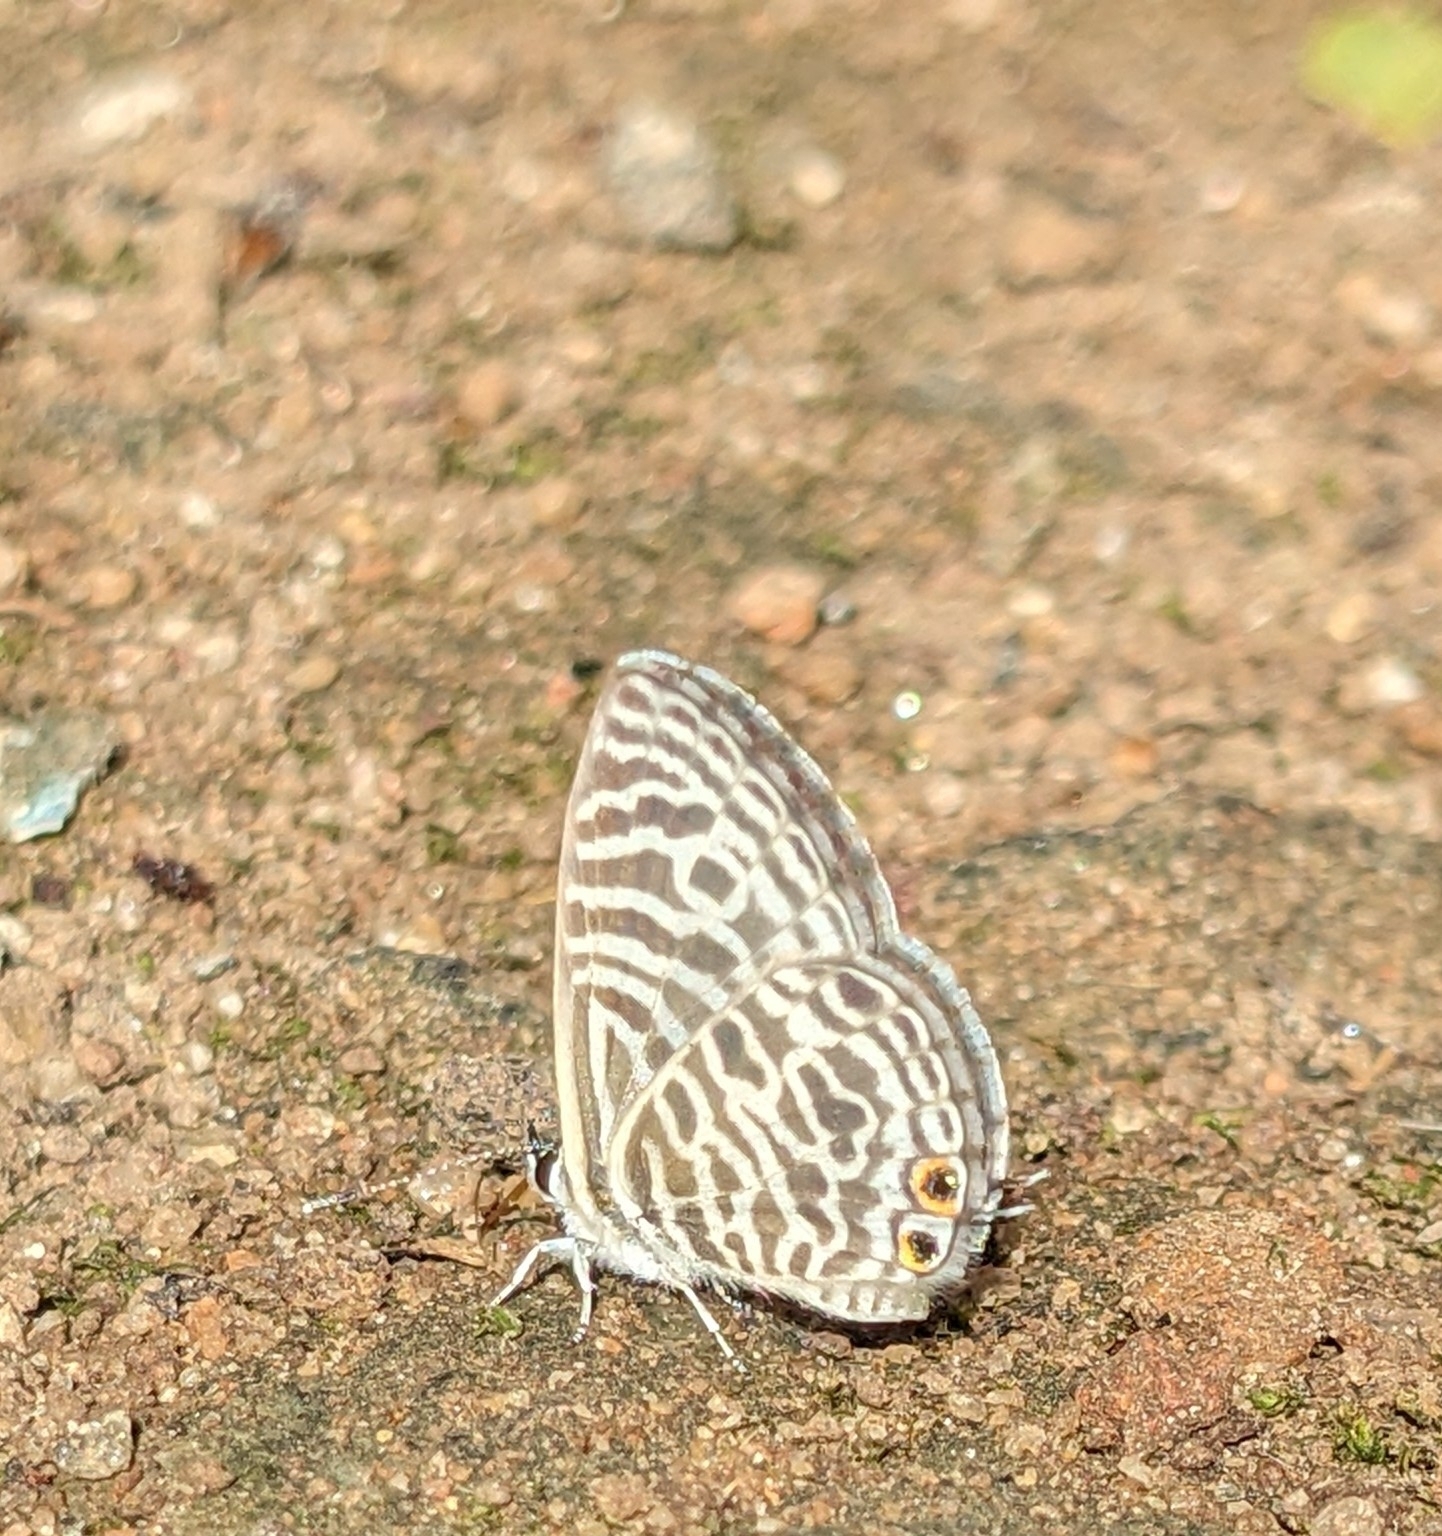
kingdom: Animalia
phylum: Arthropoda
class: Insecta
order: Lepidoptera
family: Lycaenidae
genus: Leptotes
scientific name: Leptotes plinius
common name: Zebra blue
